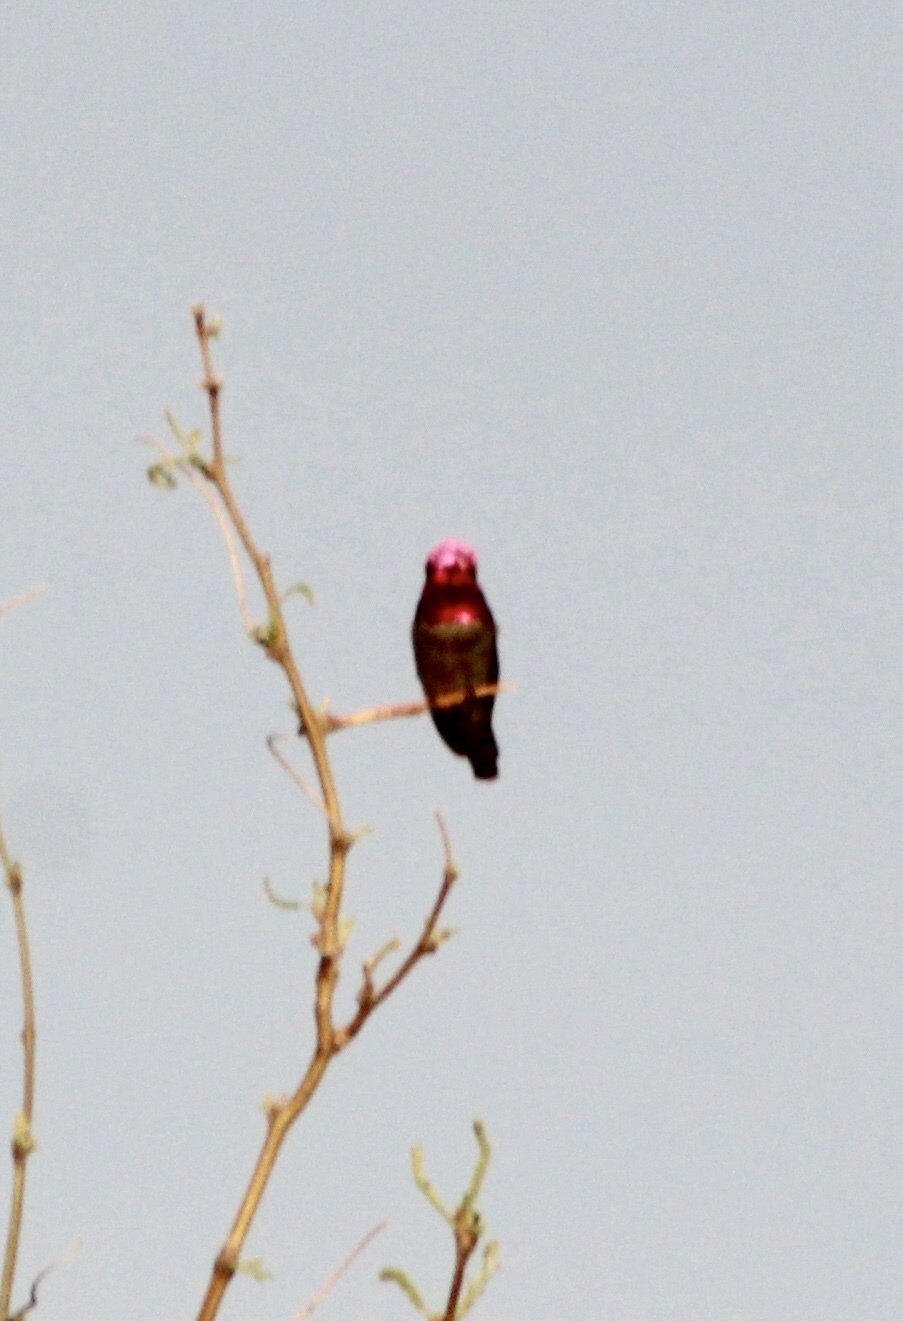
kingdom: Animalia
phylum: Chordata
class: Aves
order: Apodiformes
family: Trochilidae
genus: Calypte
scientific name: Calypte anna
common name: Anna's hummingbird
